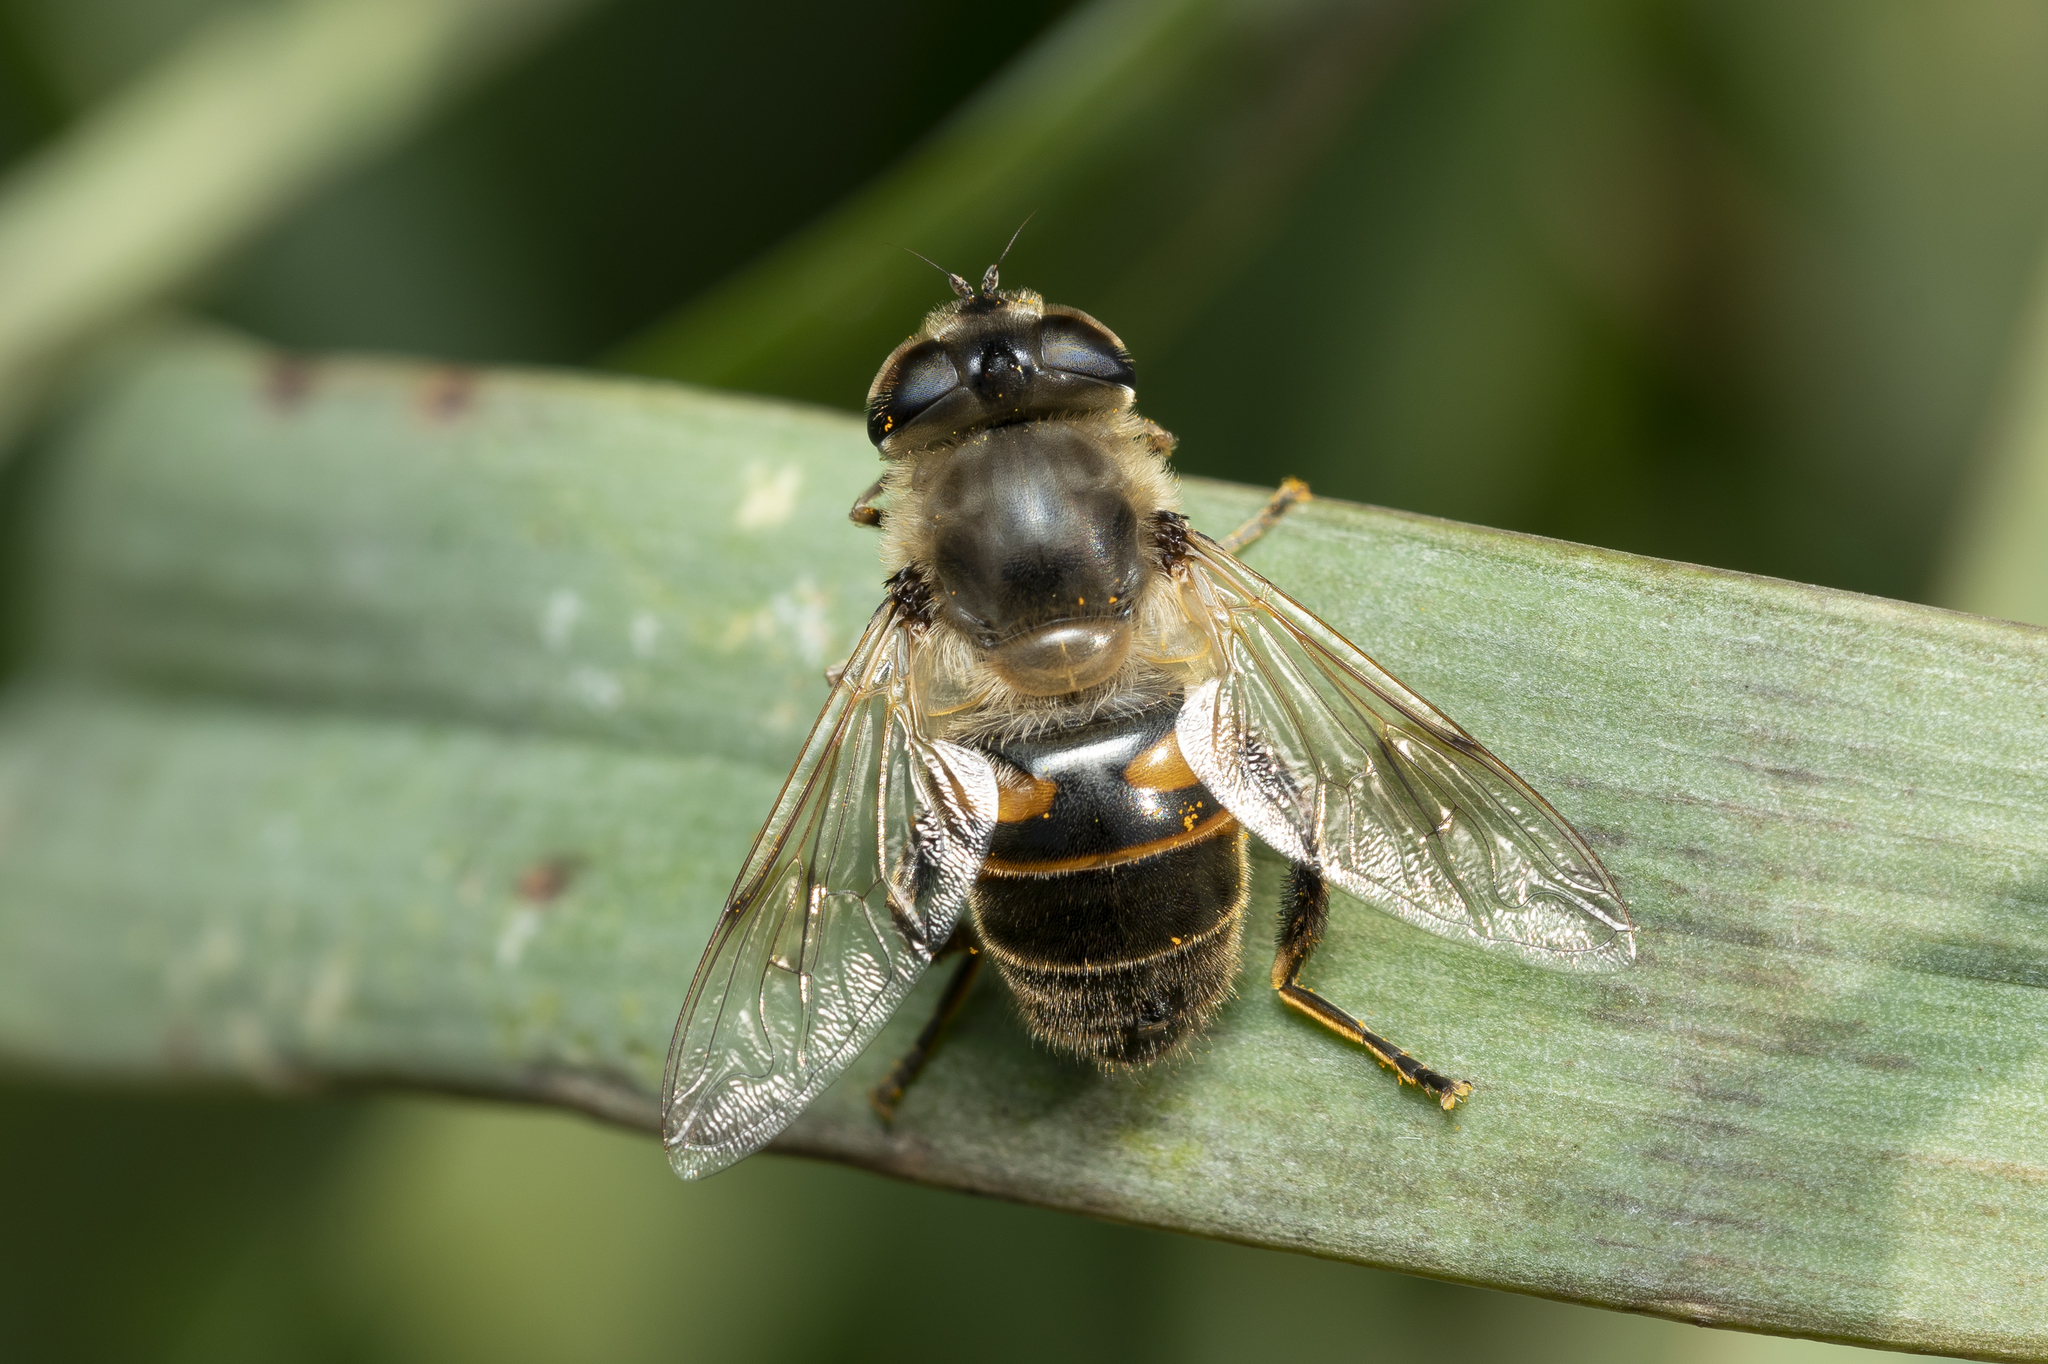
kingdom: Animalia
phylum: Arthropoda
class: Insecta
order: Diptera
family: Syrphidae
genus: Eristalis
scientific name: Eristalis tenax
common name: Drone fly
